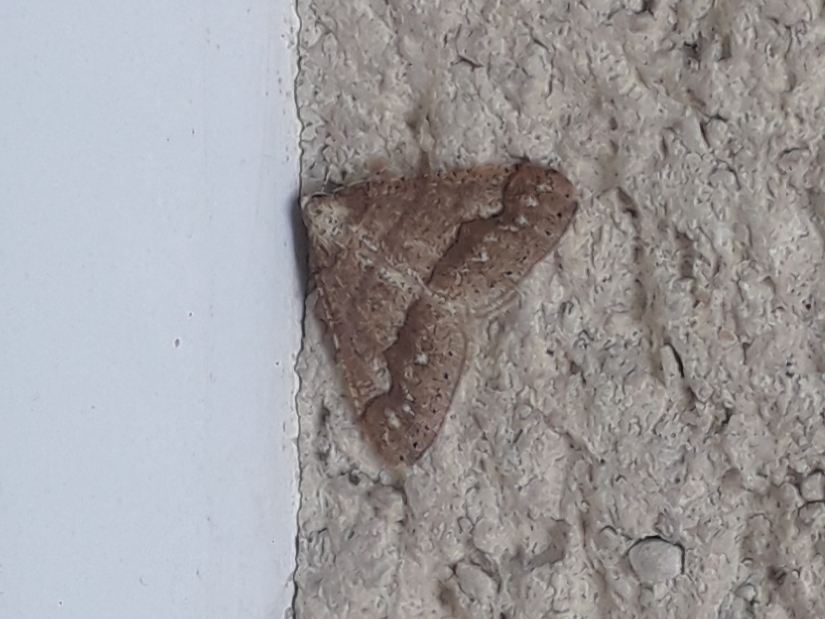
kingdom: Animalia
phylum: Arthropoda
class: Insecta
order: Lepidoptera
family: Geometridae
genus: Agriopis
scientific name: Agriopis marginaria
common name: Dotted border
